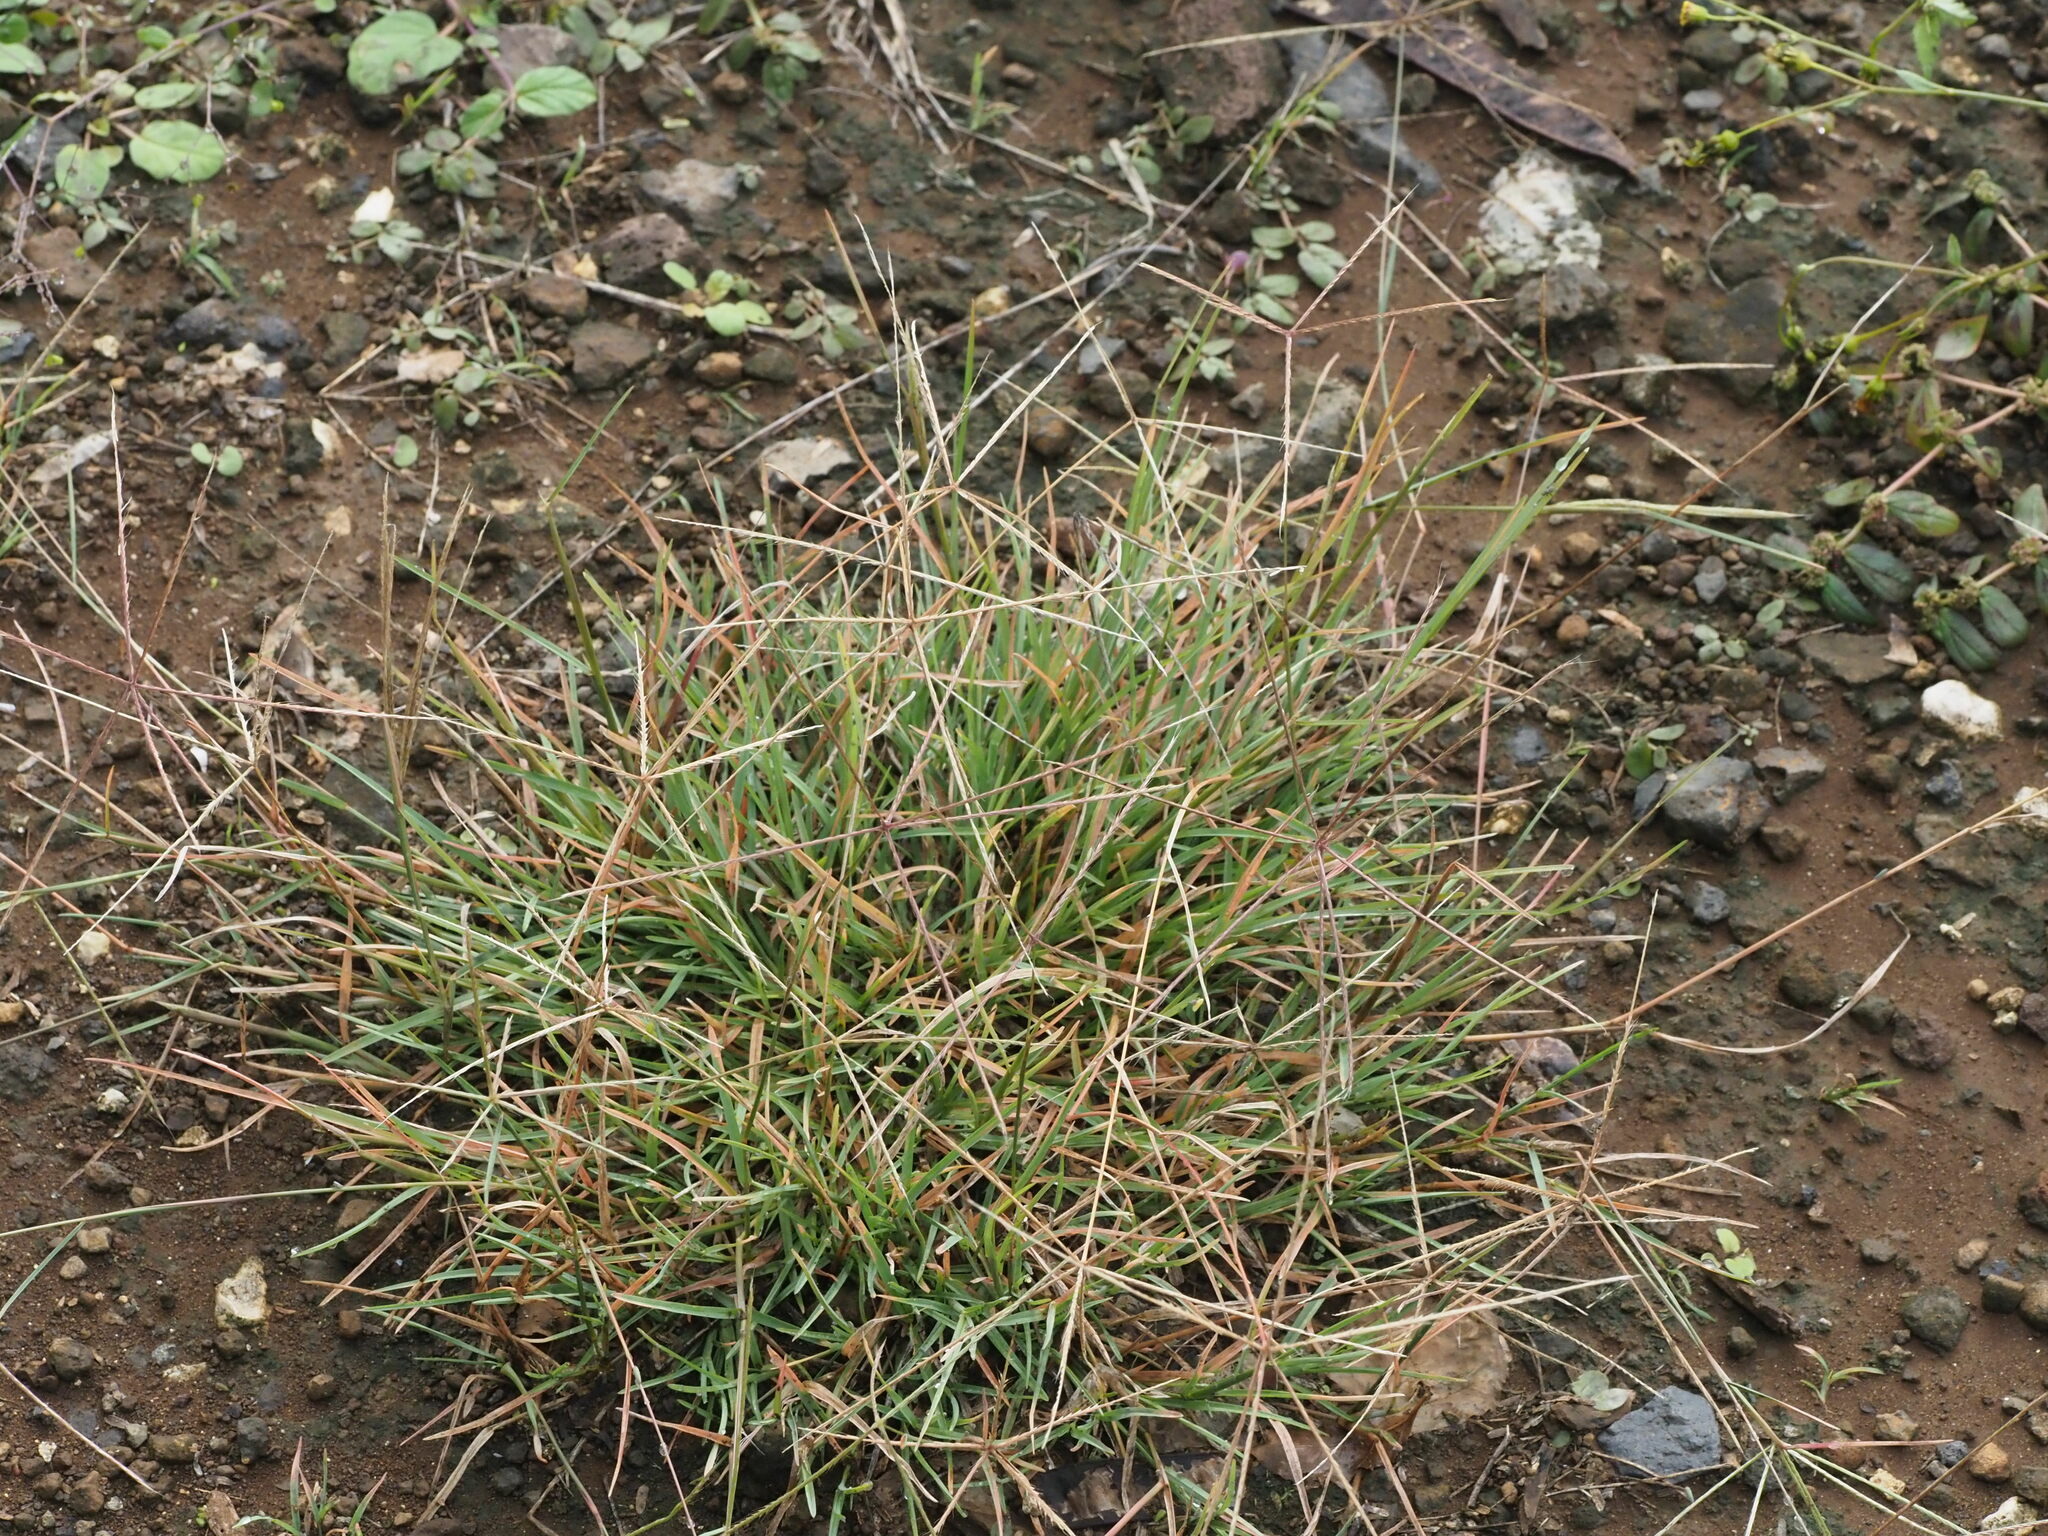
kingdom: Plantae
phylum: Tracheophyta
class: Liliopsida
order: Poales
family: Poaceae
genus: Chloris
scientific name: Chloris divaricata
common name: Spreading windmill grass
